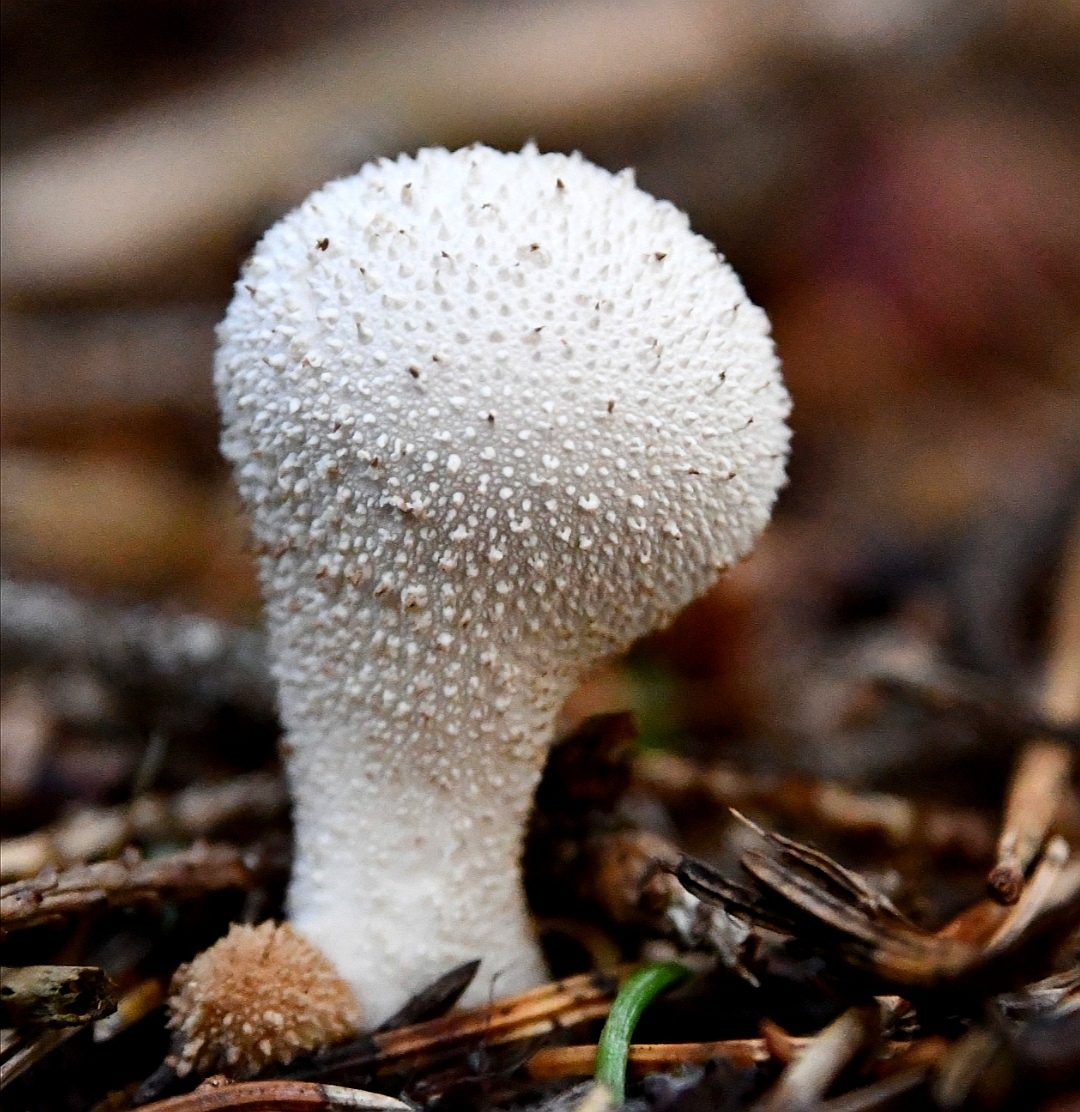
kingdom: Fungi
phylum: Basidiomycota
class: Agaricomycetes
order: Agaricales
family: Lycoperdaceae
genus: Lycoperdon
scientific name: Lycoperdon perlatum
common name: Common puffball
